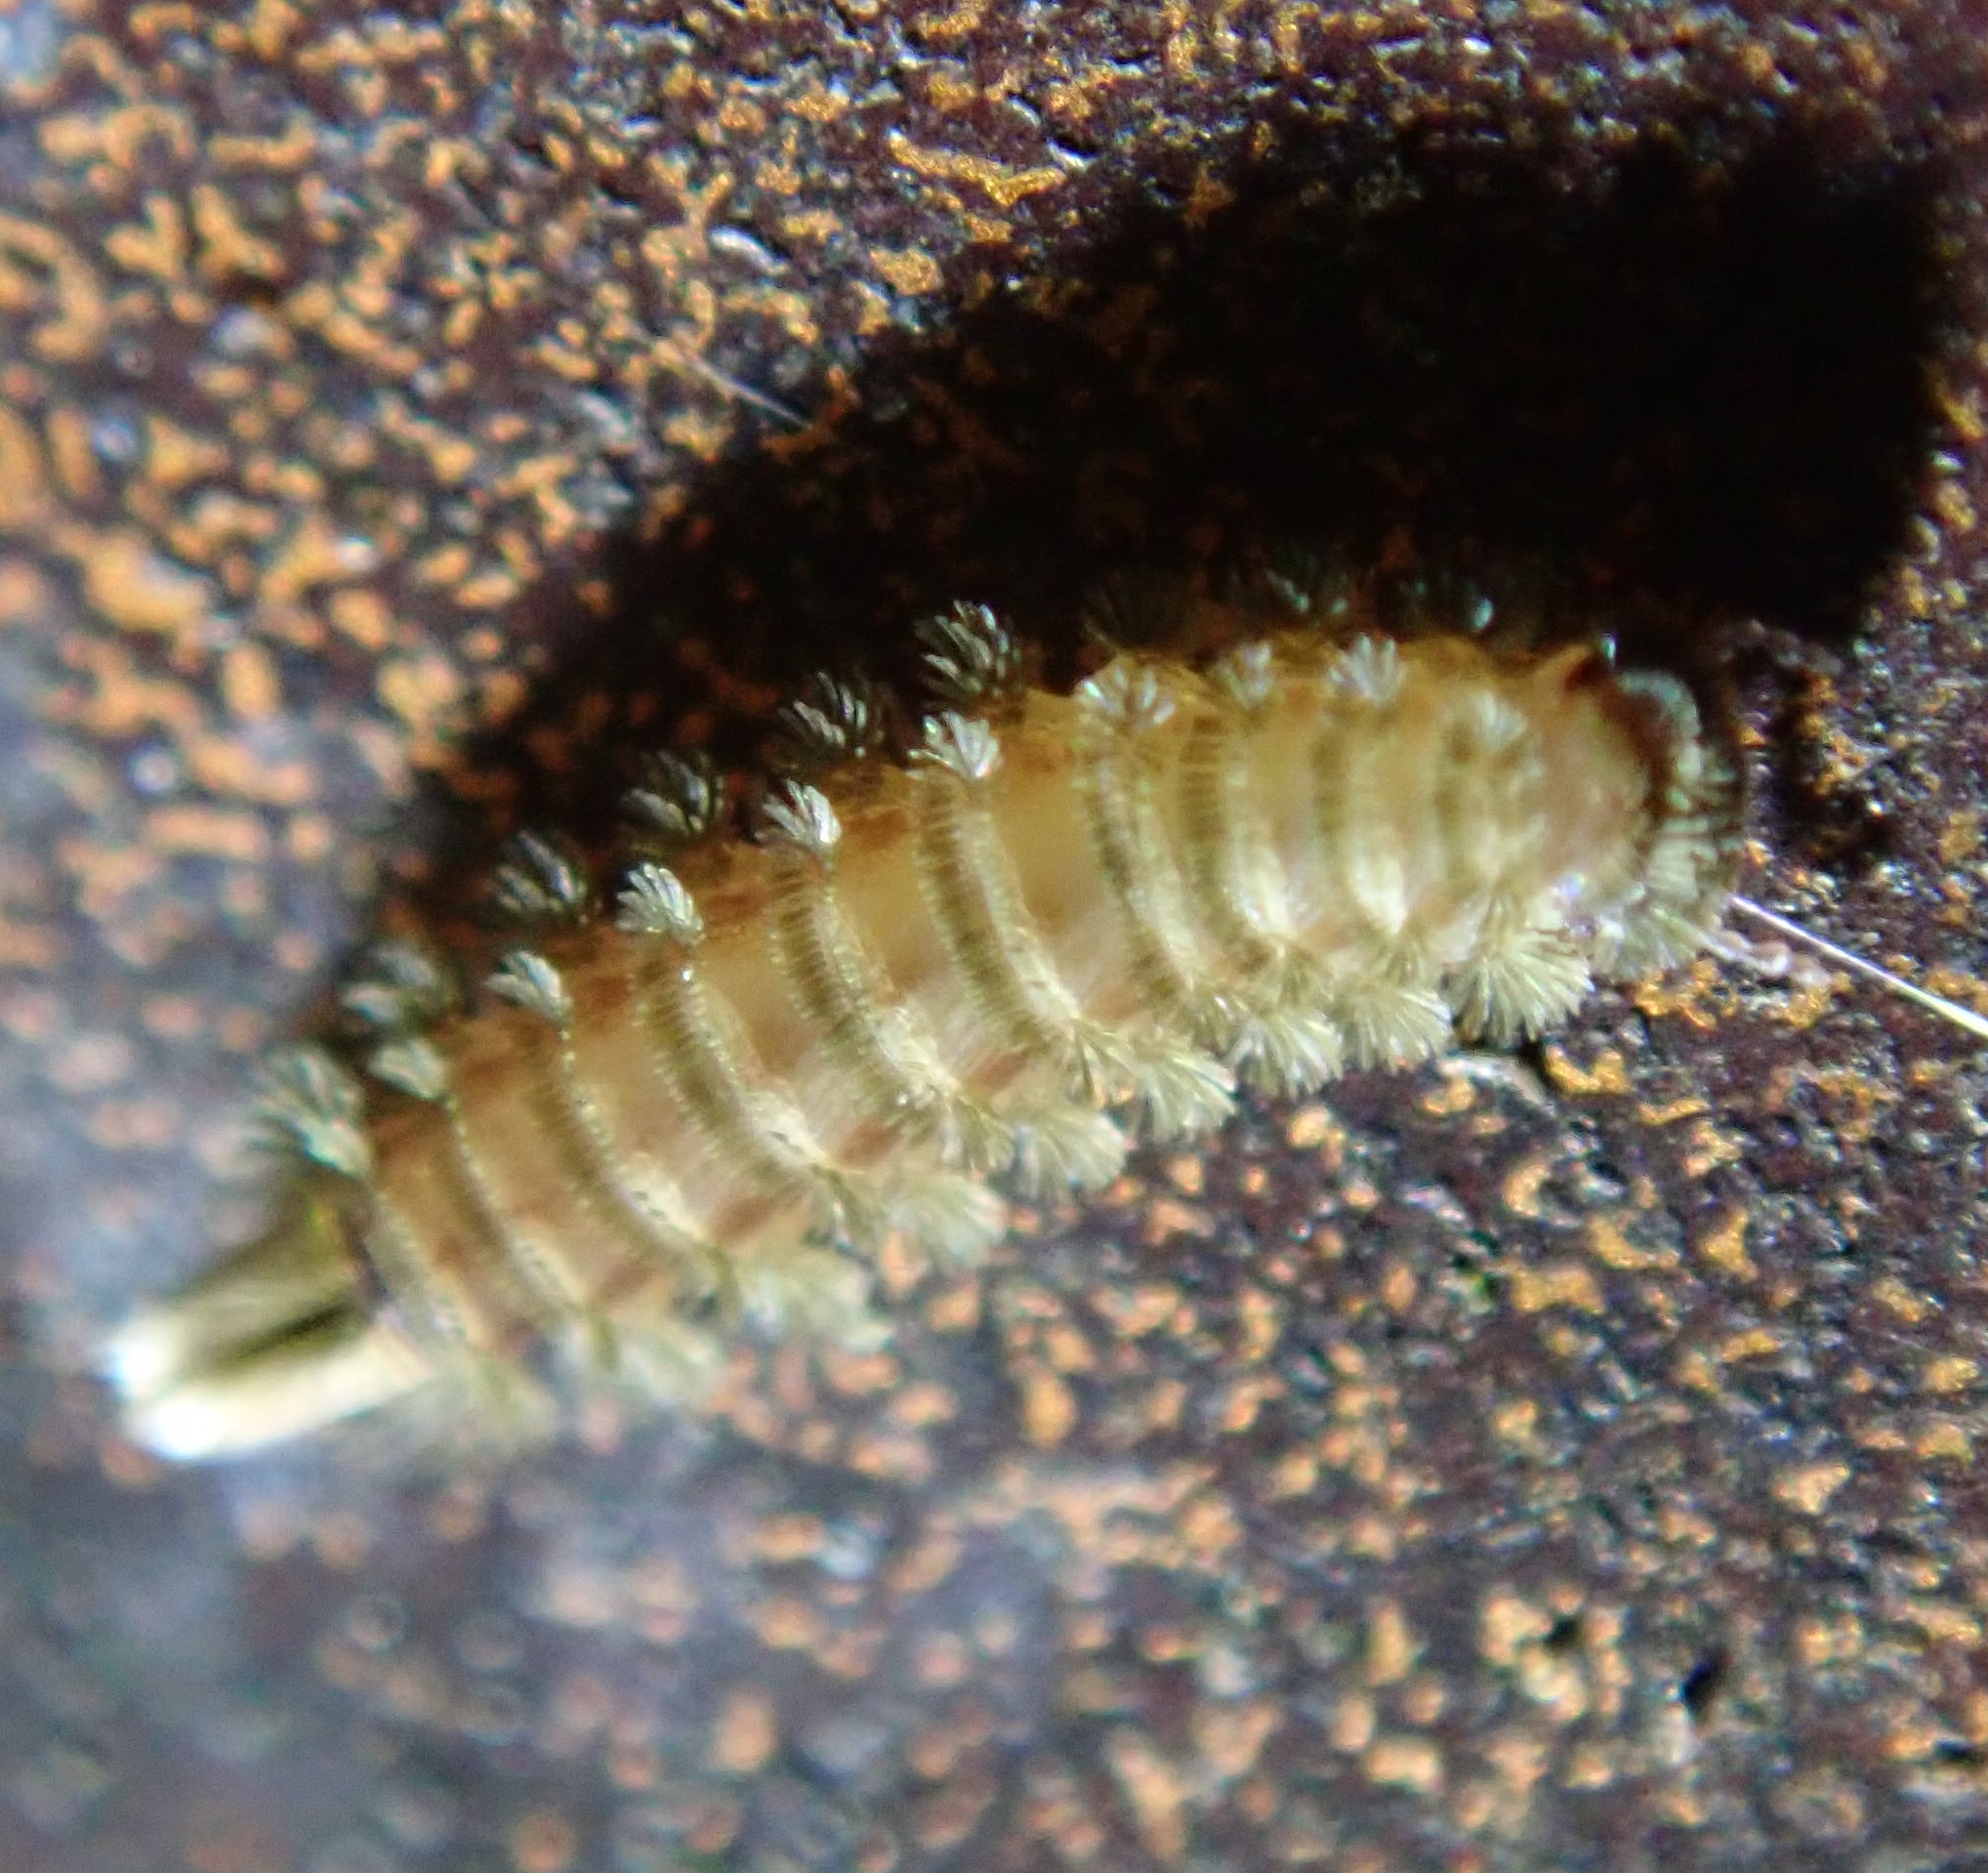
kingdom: Animalia
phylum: Arthropoda
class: Diplopoda
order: Polyxenida
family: Polyxenidae
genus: Polyxenus
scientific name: Polyxenus lagurus
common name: Bristly millipede
